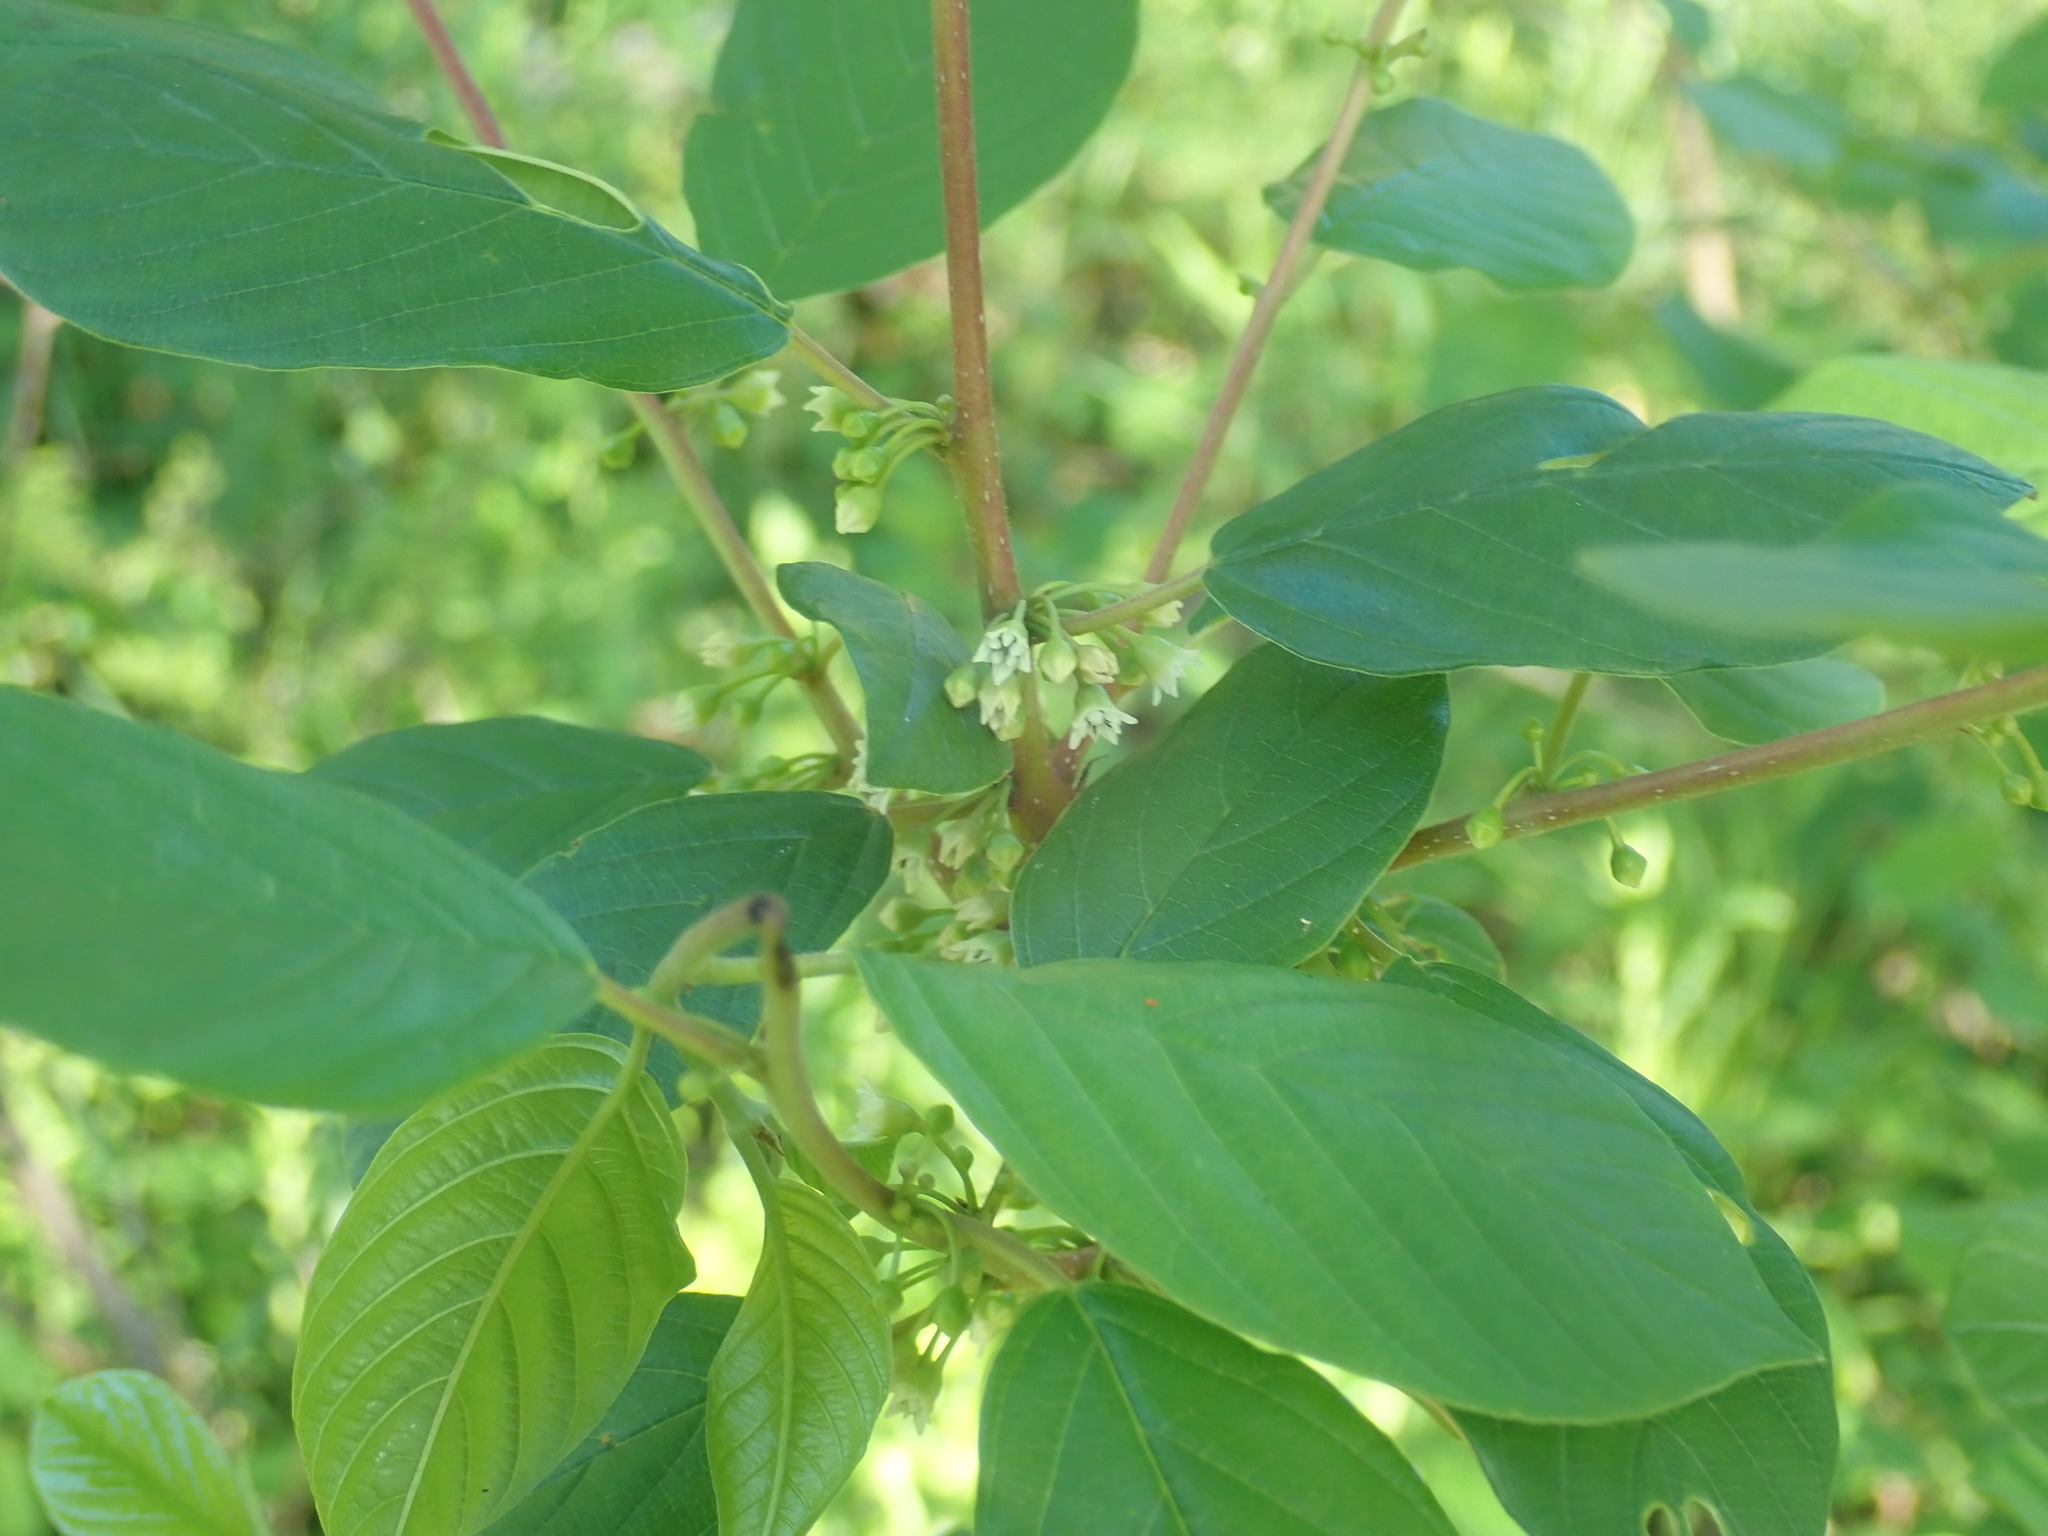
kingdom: Plantae
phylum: Tracheophyta
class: Magnoliopsida
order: Rosales
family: Rhamnaceae
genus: Frangula
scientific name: Frangula alnus
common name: Alder buckthorn
